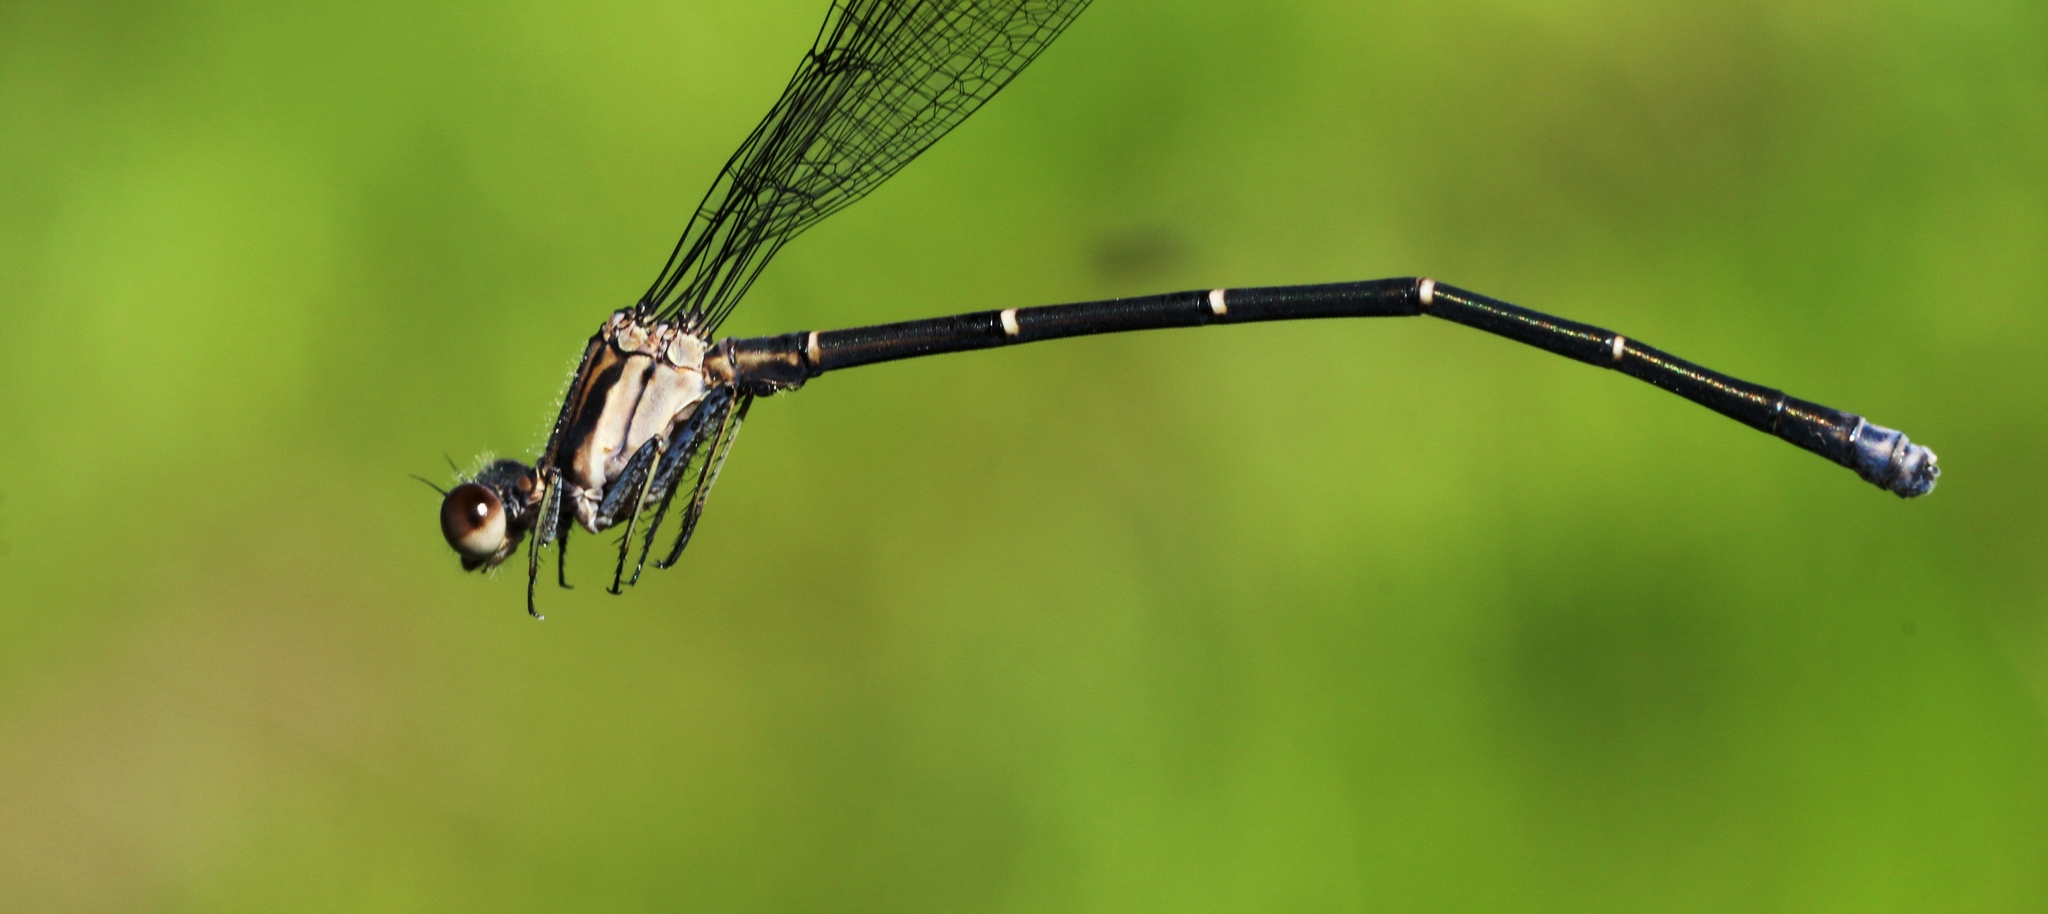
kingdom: Animalia
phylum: Arthropoda
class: Insecta
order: Odonata
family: Coenagrionidae
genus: Argia
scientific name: Argia moesta
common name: Powdered dancer
